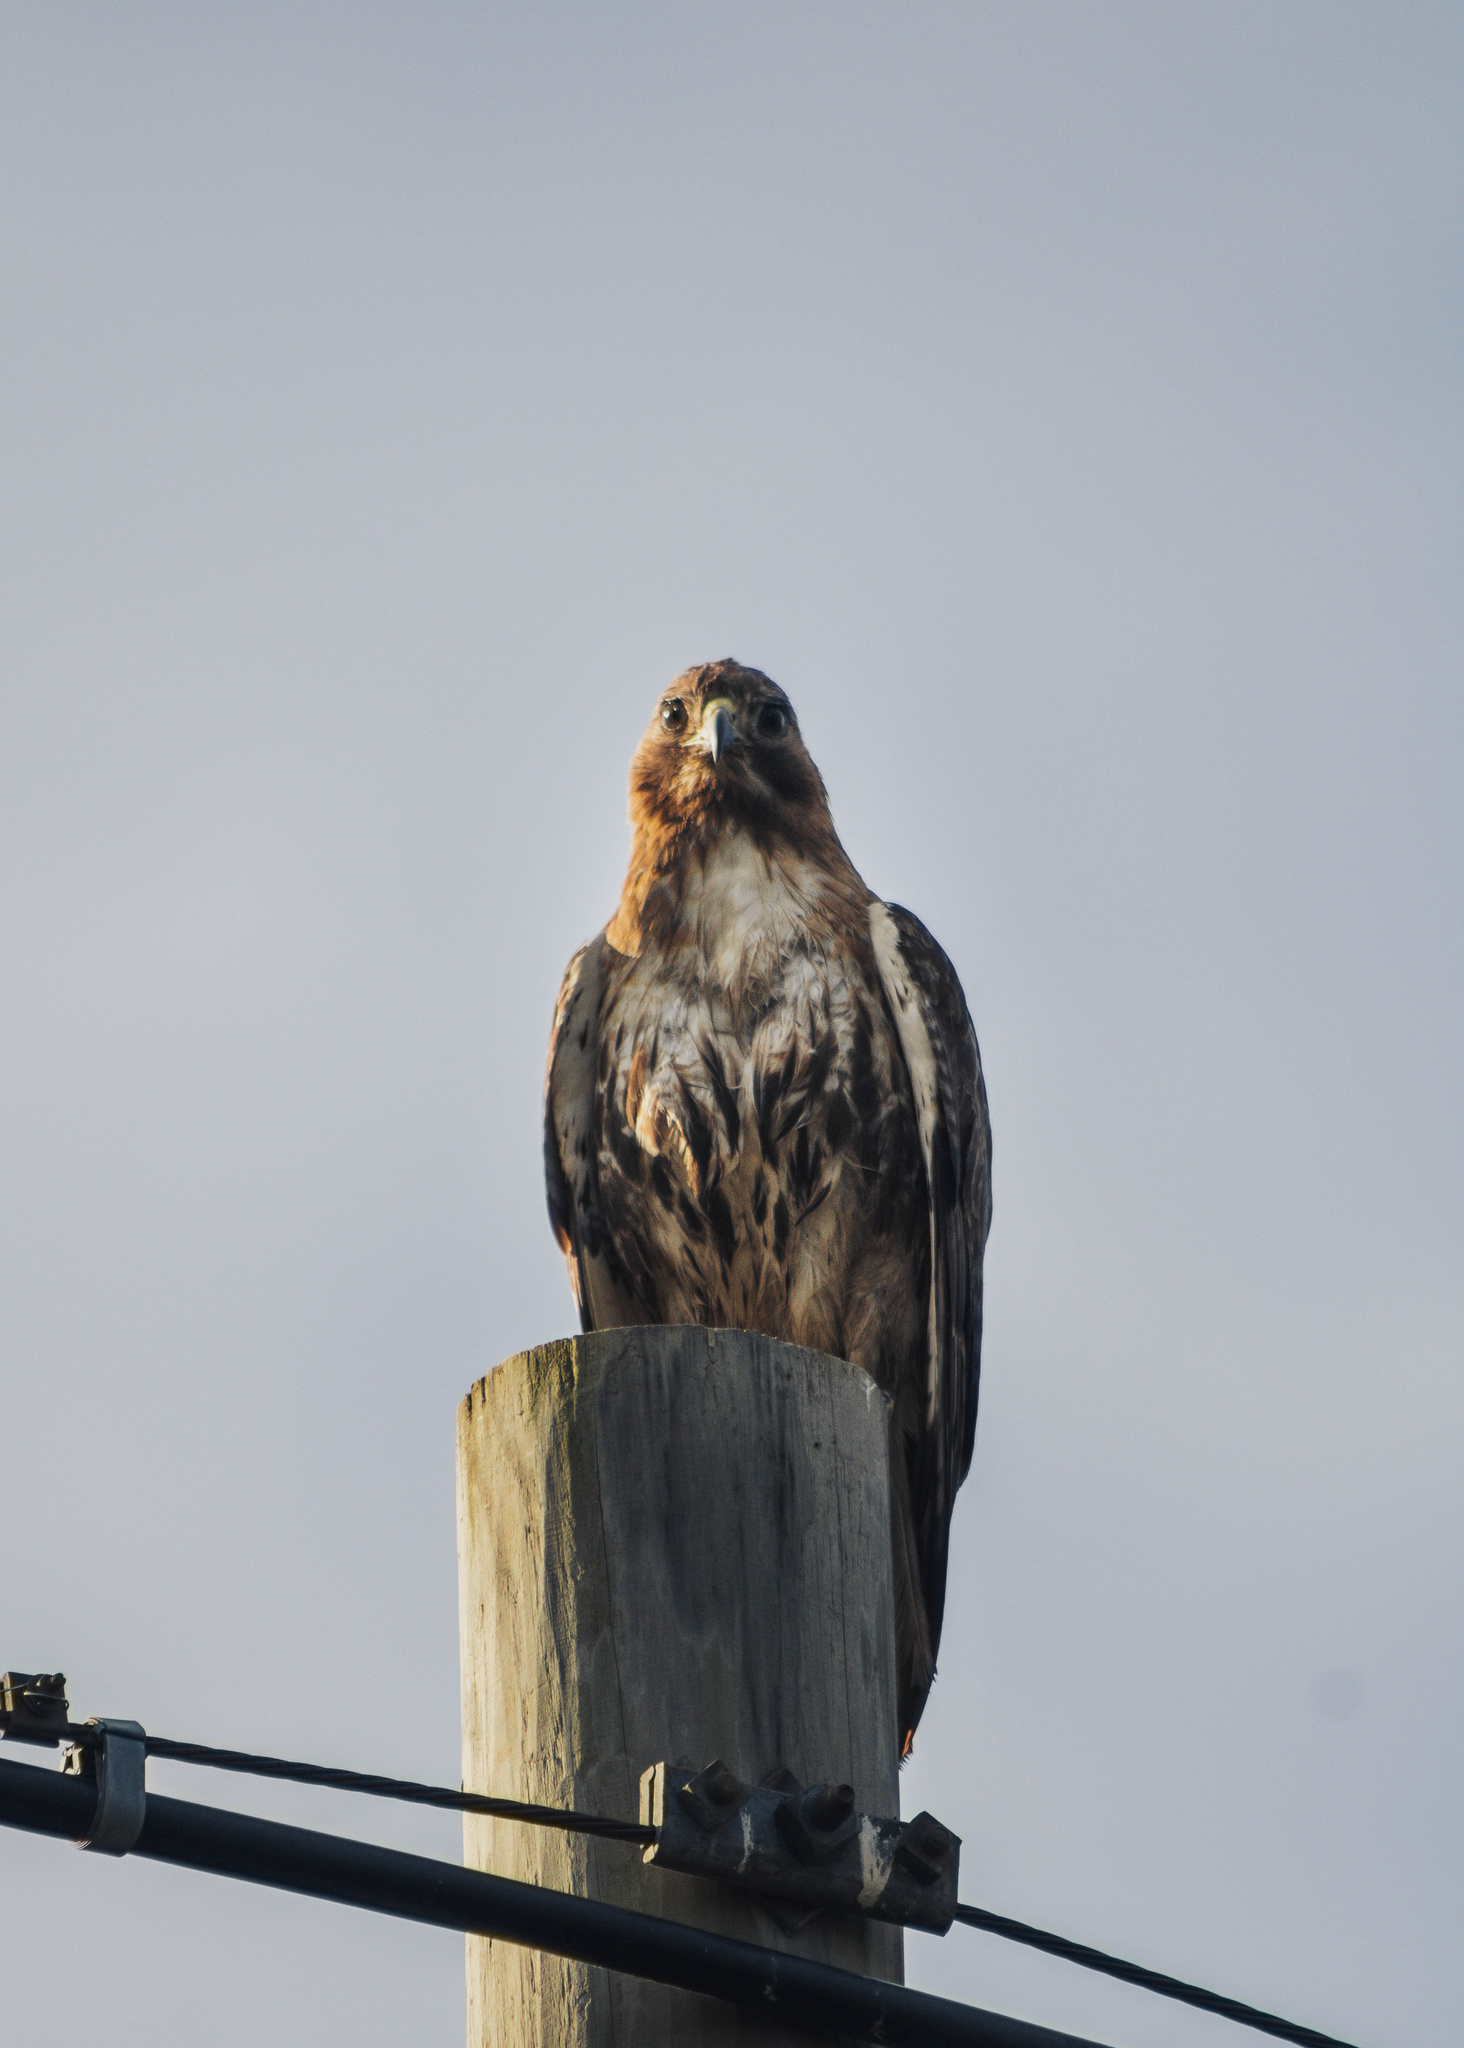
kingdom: Animalia
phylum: Chordata
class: Aves
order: Accipitriformes
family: Accipitridae
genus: Buteo
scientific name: Buteo jamaicensis
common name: Red-tailed hawk
